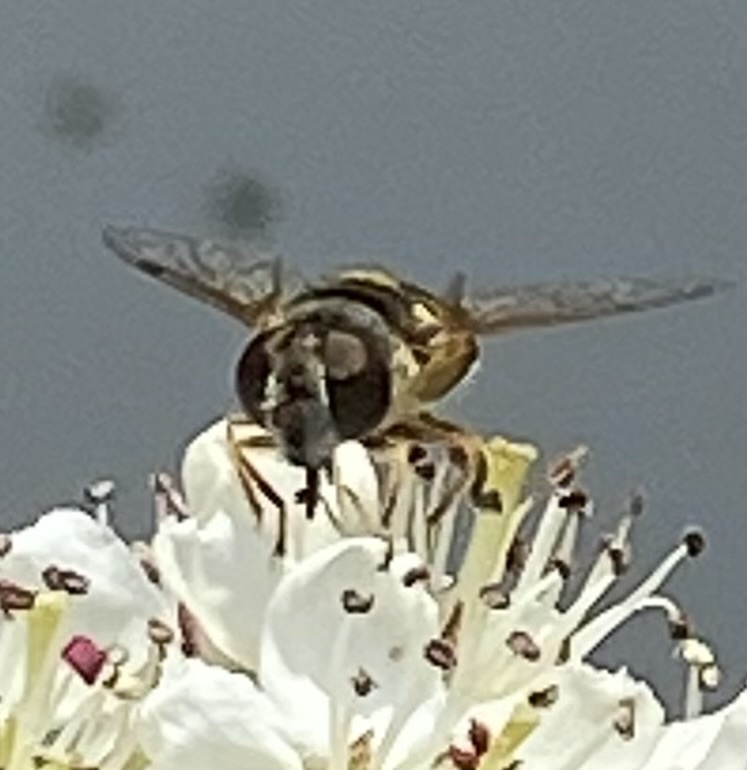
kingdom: Animalia
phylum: Arthropoda
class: Insecta
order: Diptera
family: Syrphidae
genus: Eristalis
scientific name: Eristalis transversa
